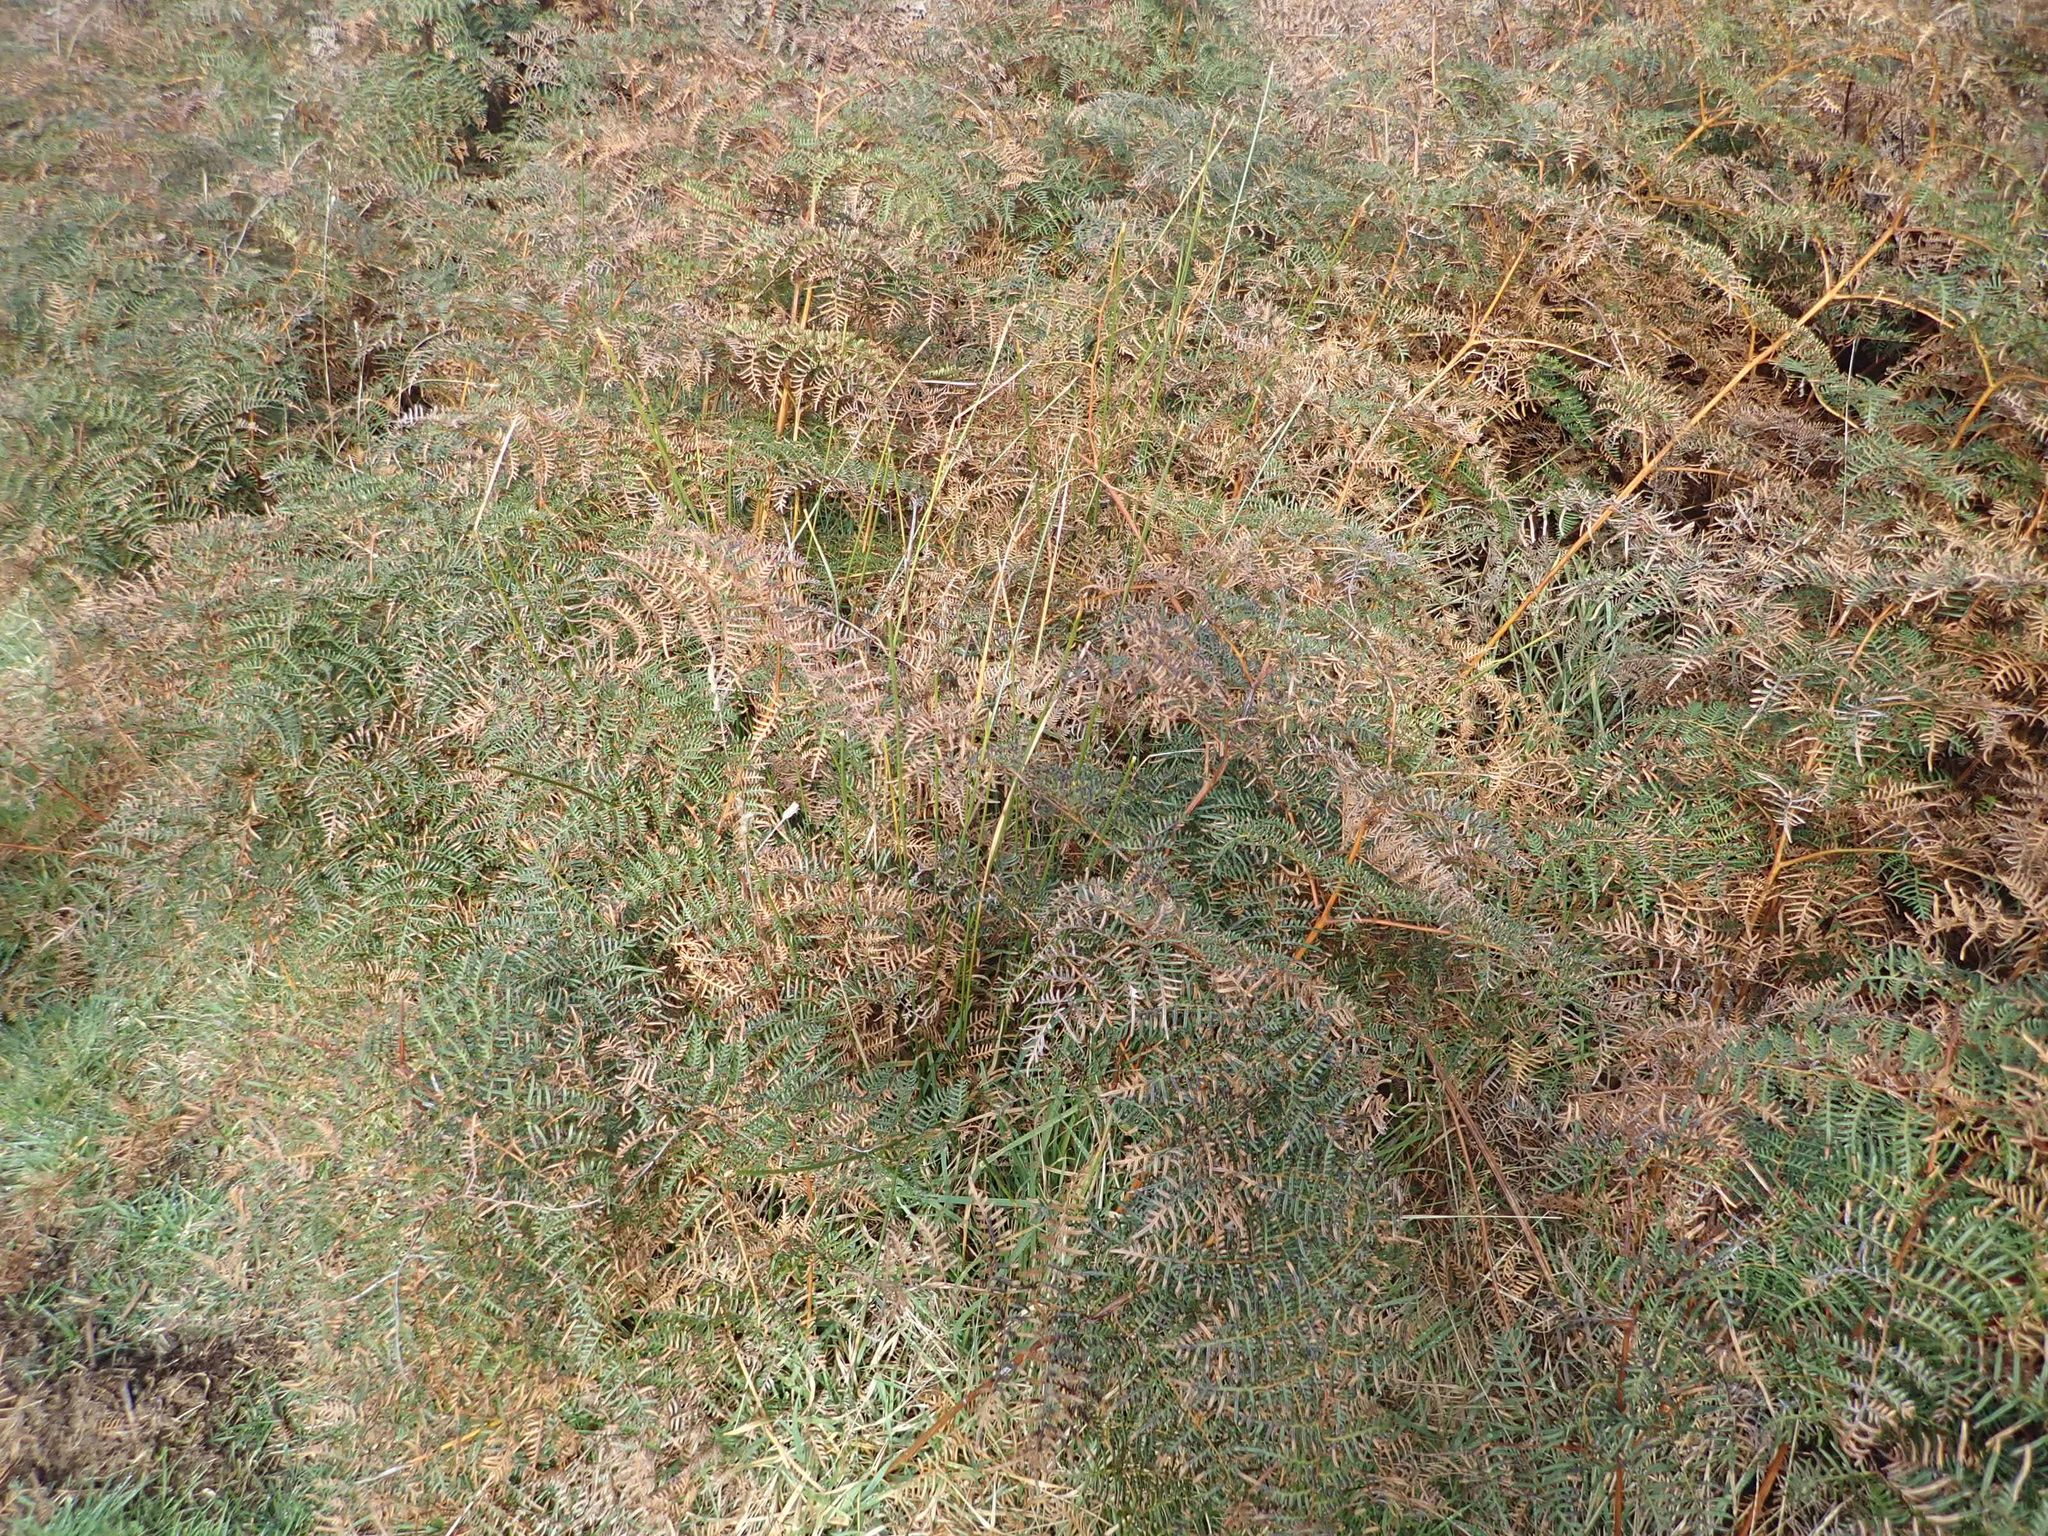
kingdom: Plantae
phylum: Tracheophyta
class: Polypodiopsida
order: Polypodiales
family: Dennstaedtiaceae
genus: Pteridium
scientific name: Pteridium esculentum
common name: Bracken fern
